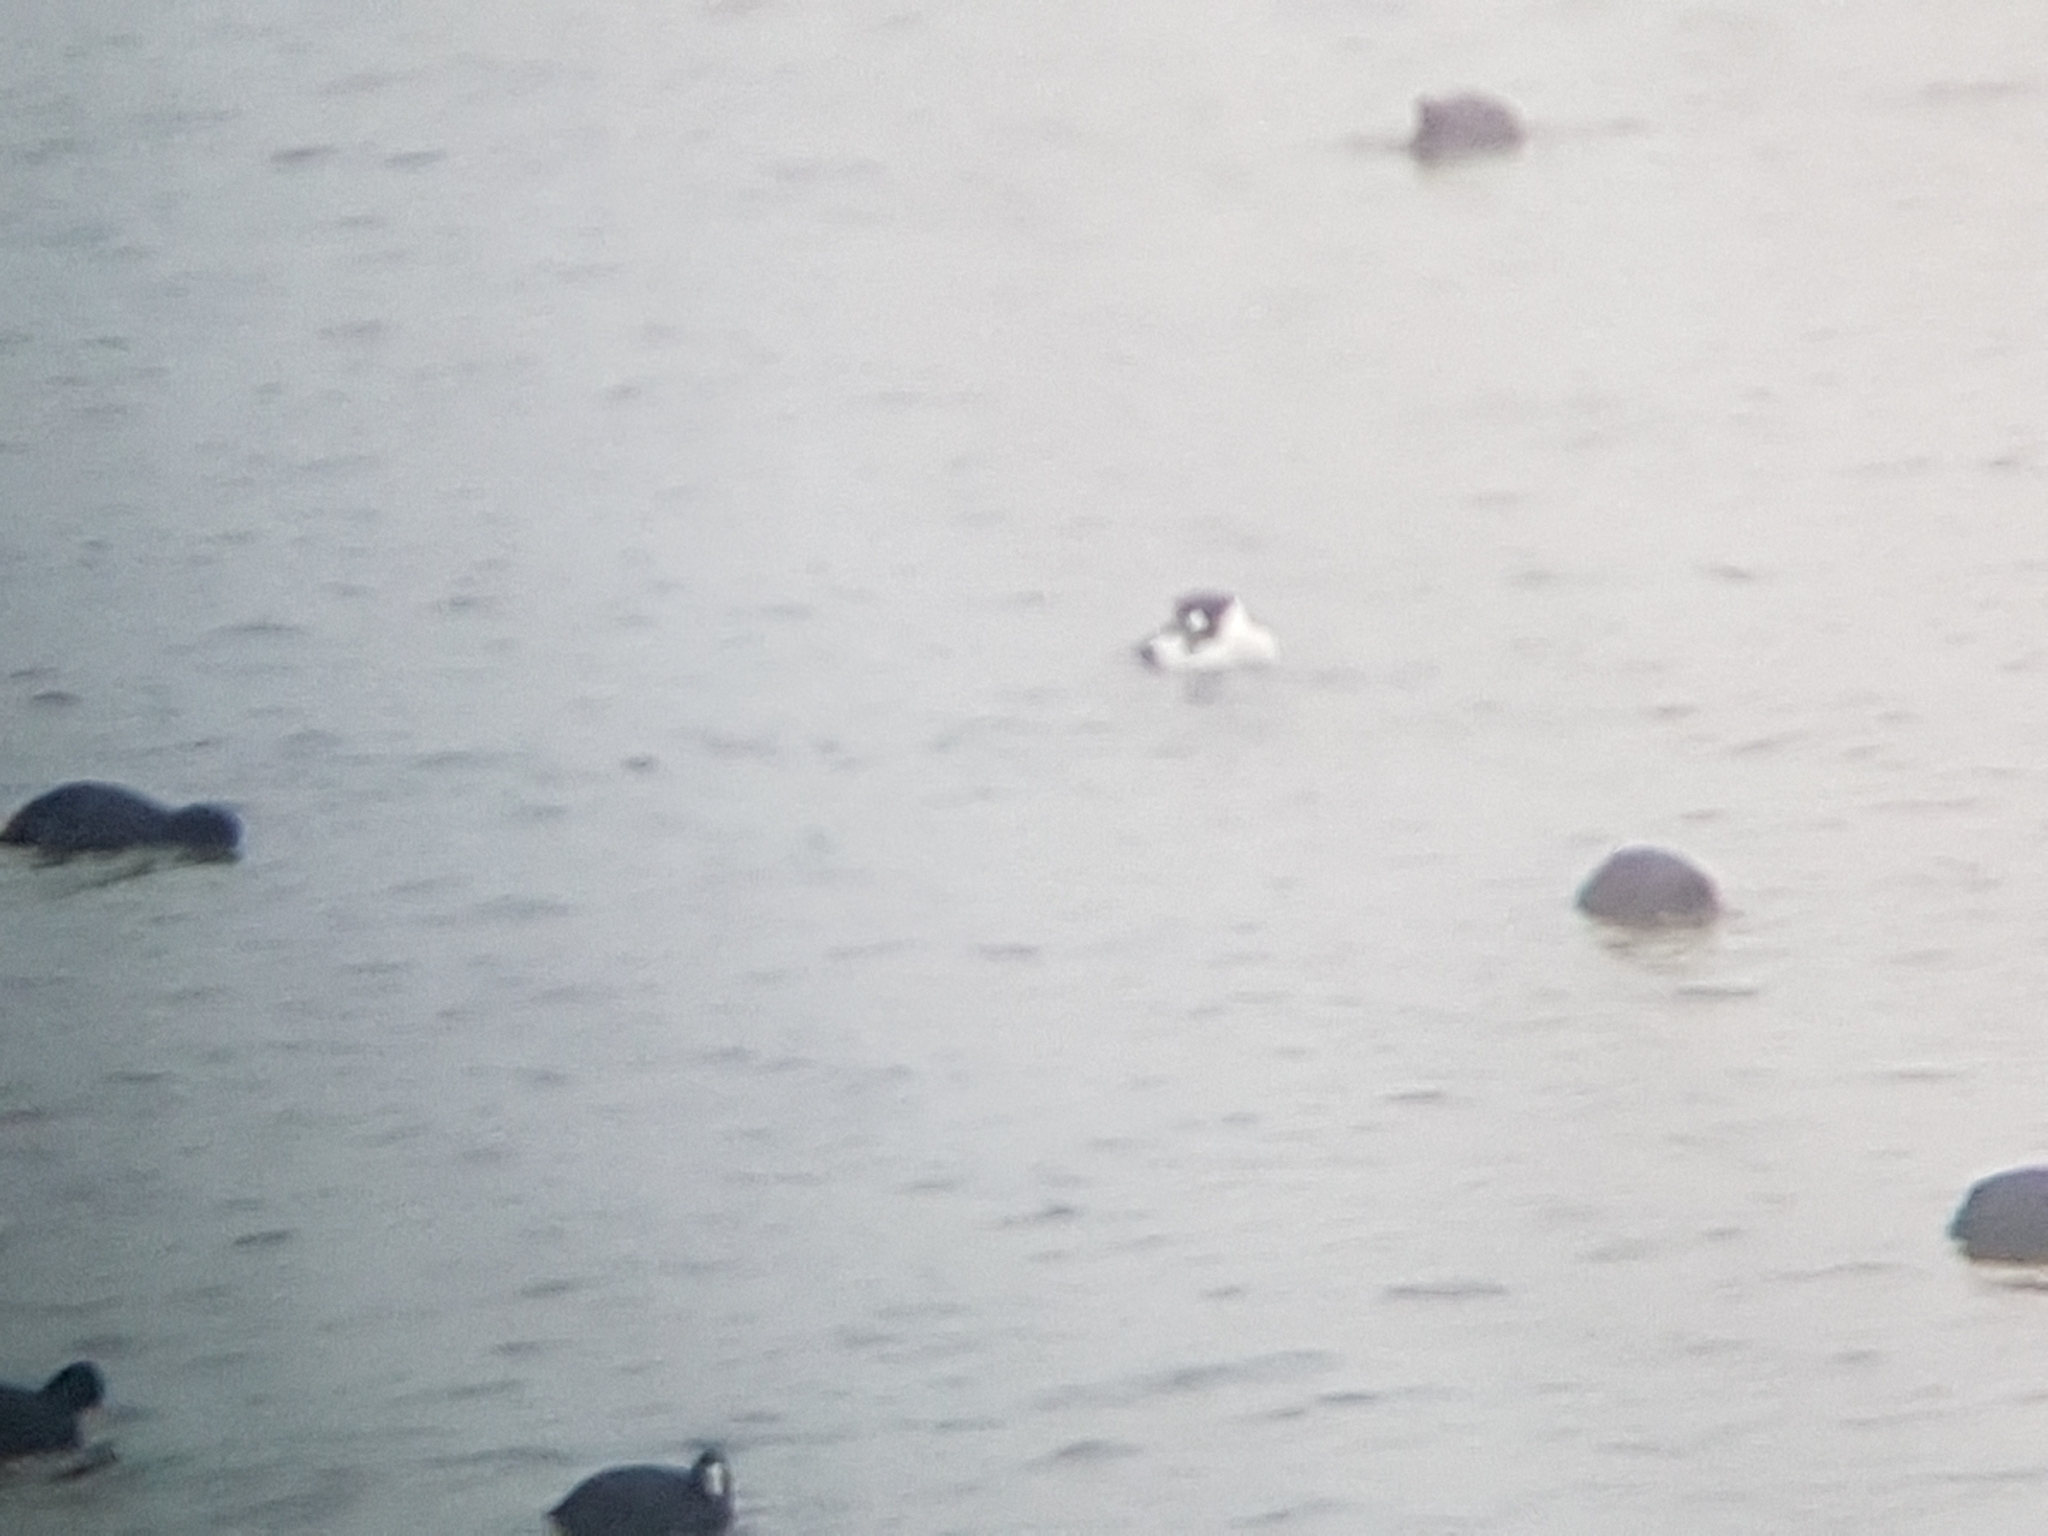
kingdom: Animalia
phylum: Chordata
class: Aves
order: Anseriformes
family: Anatidae
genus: Bucephala
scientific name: Bucephala clangula
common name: Common goldeneye
